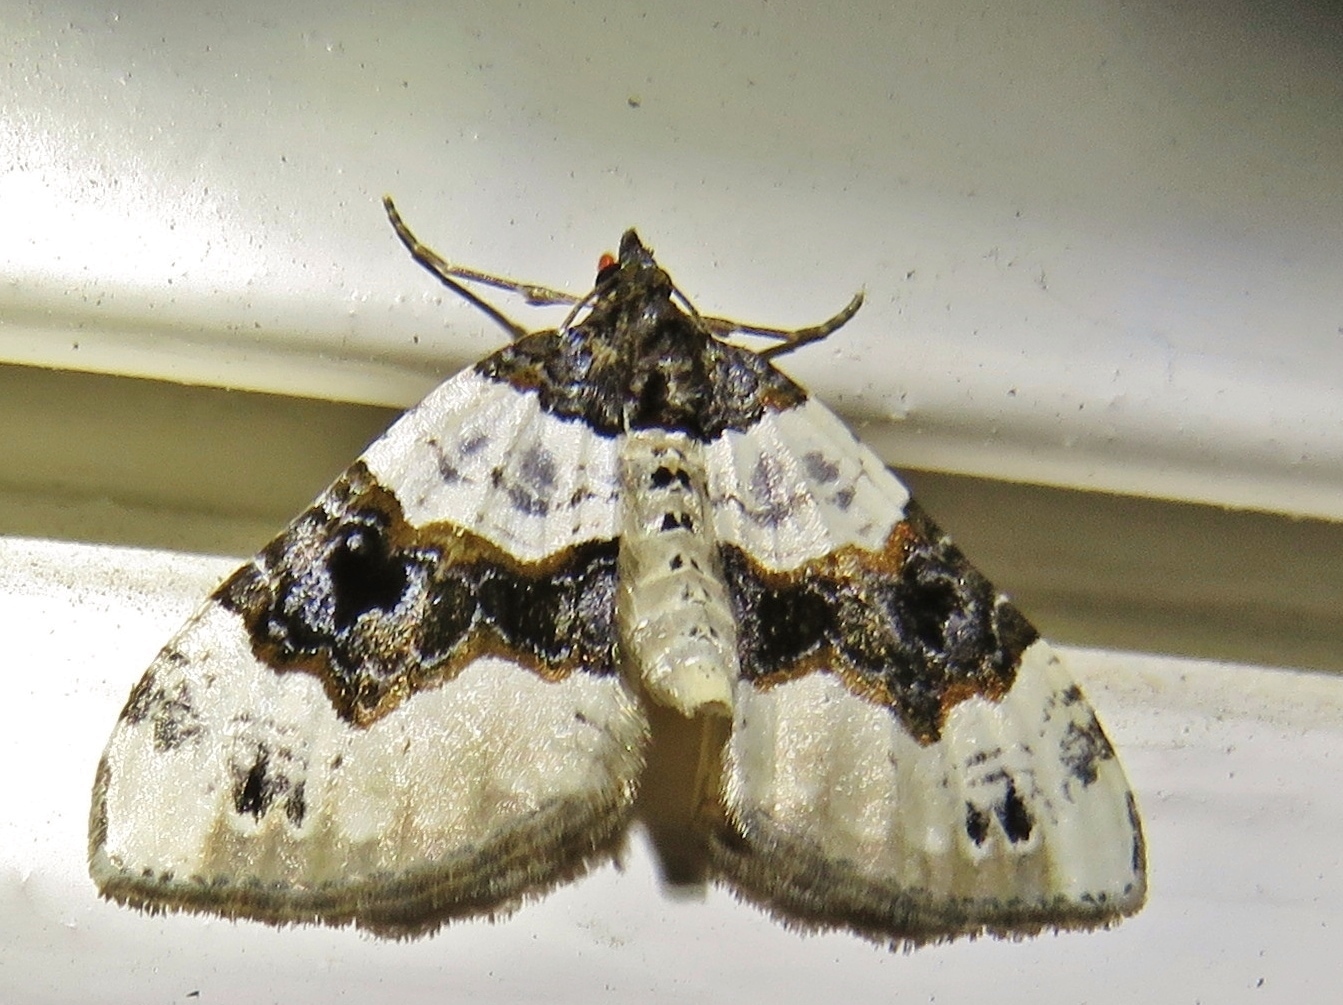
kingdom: Animalia
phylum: Arthropoda
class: Insecta
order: Lepidoptera
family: Geometridae
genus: Cosmorhoe
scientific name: Cosmorhoe ocellata
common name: Purple bar
